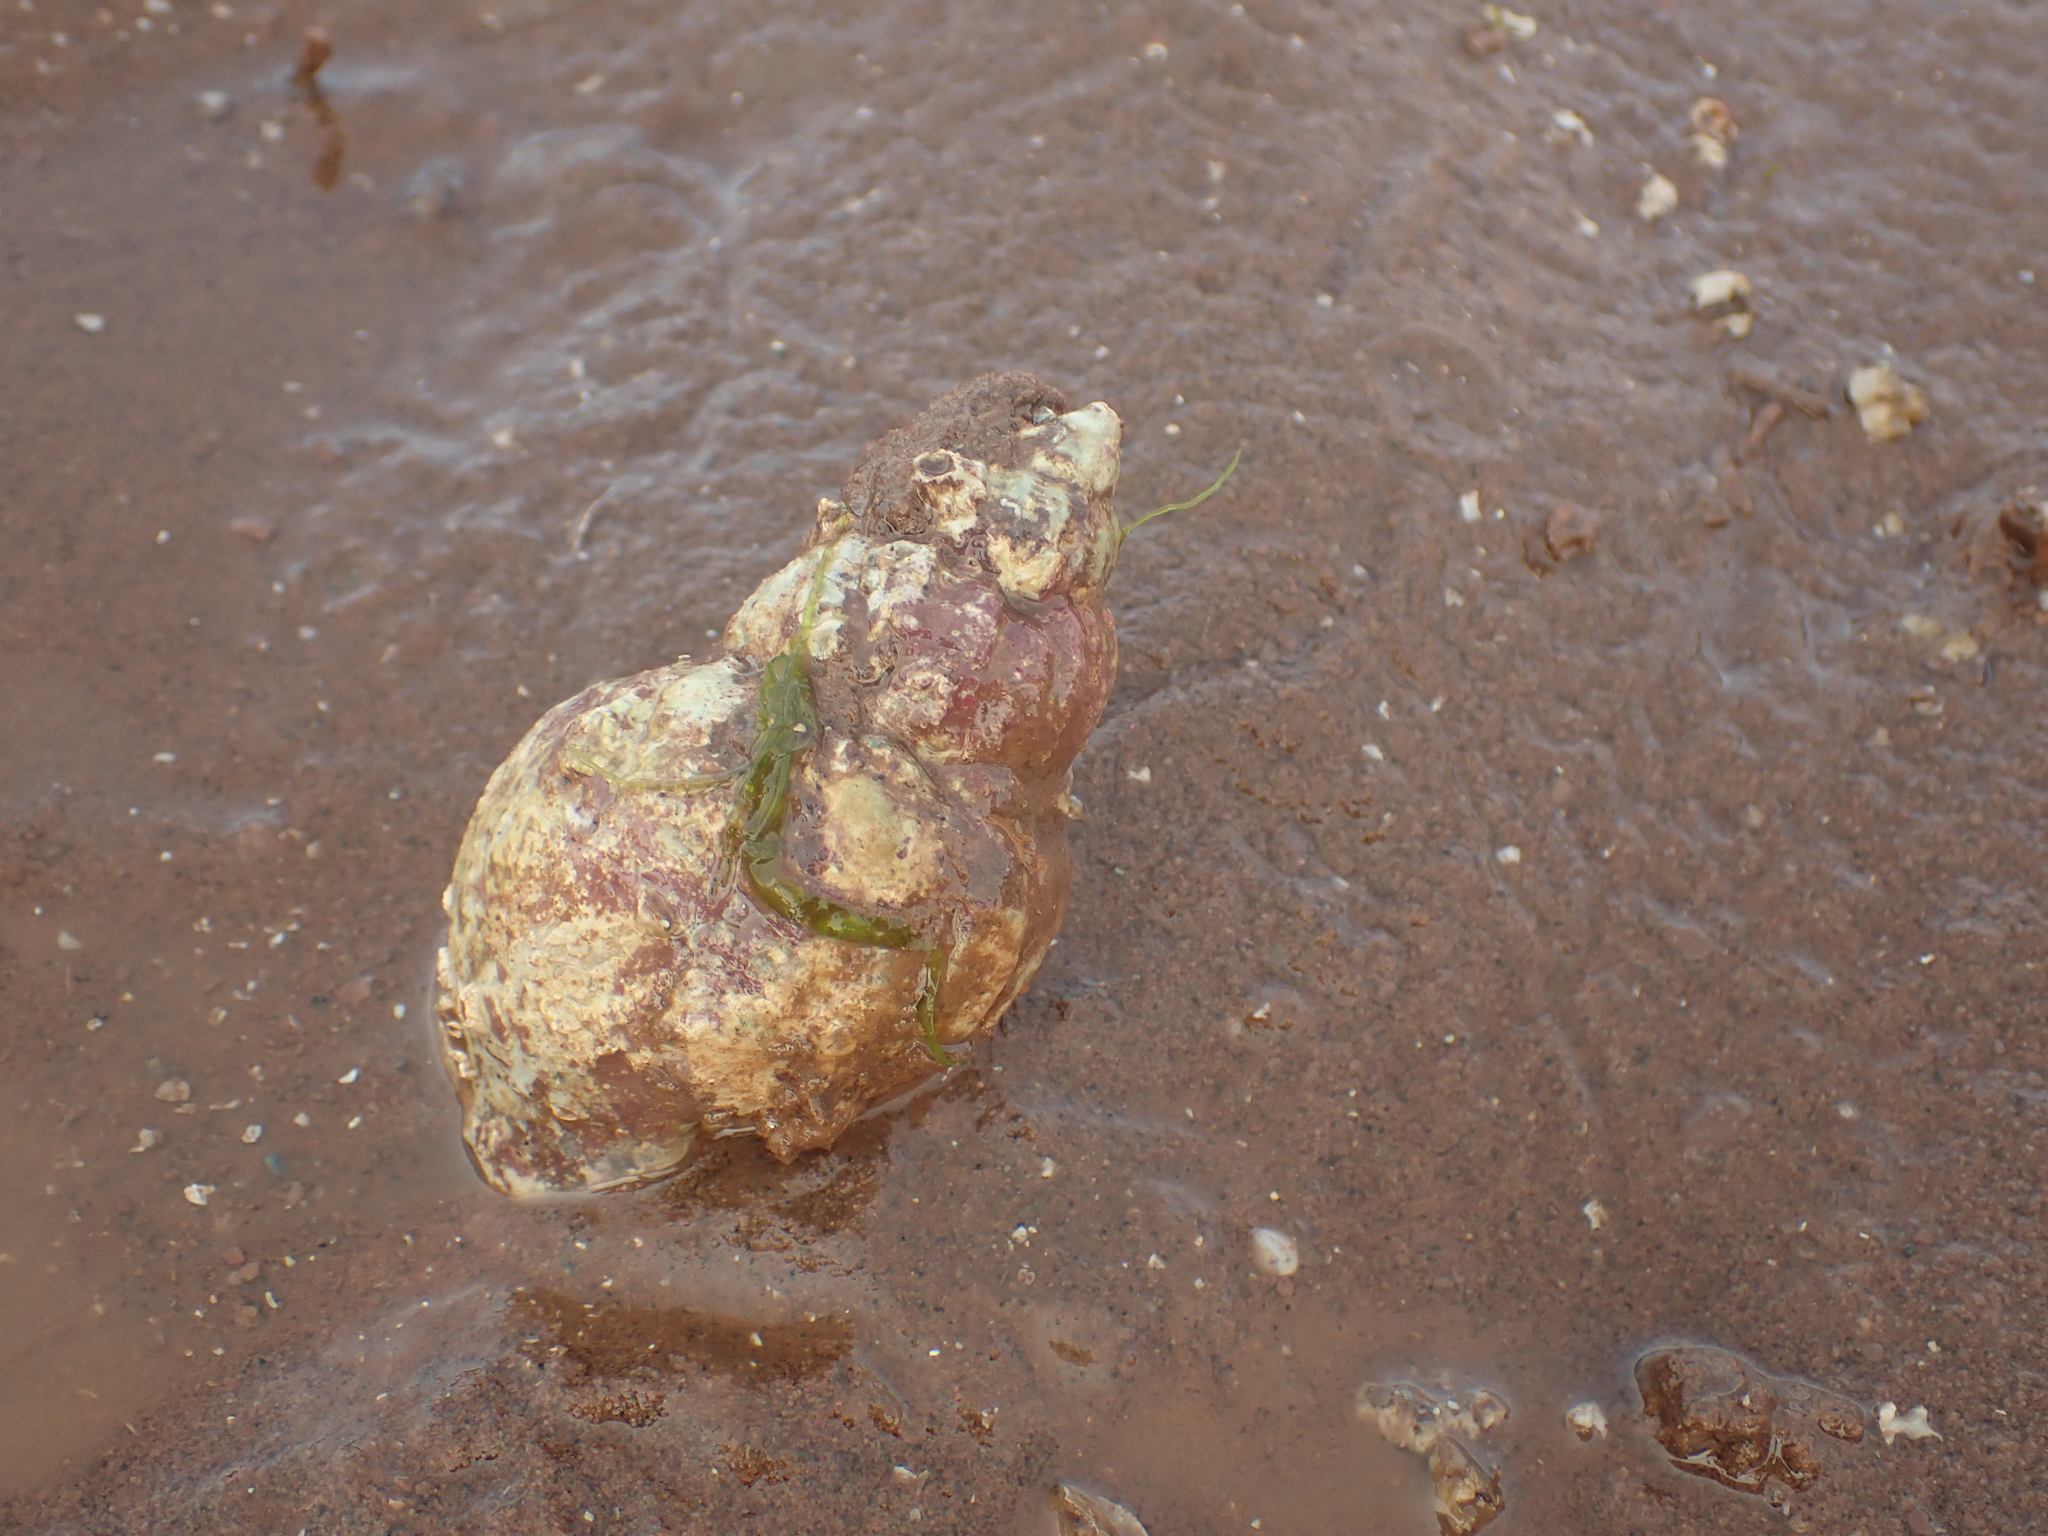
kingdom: Animalia
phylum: Mollusca
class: Gastropoda
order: Neogastropoda
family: Buccinidae
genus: Buccinum
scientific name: Buccinum undatum
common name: Common whelk
